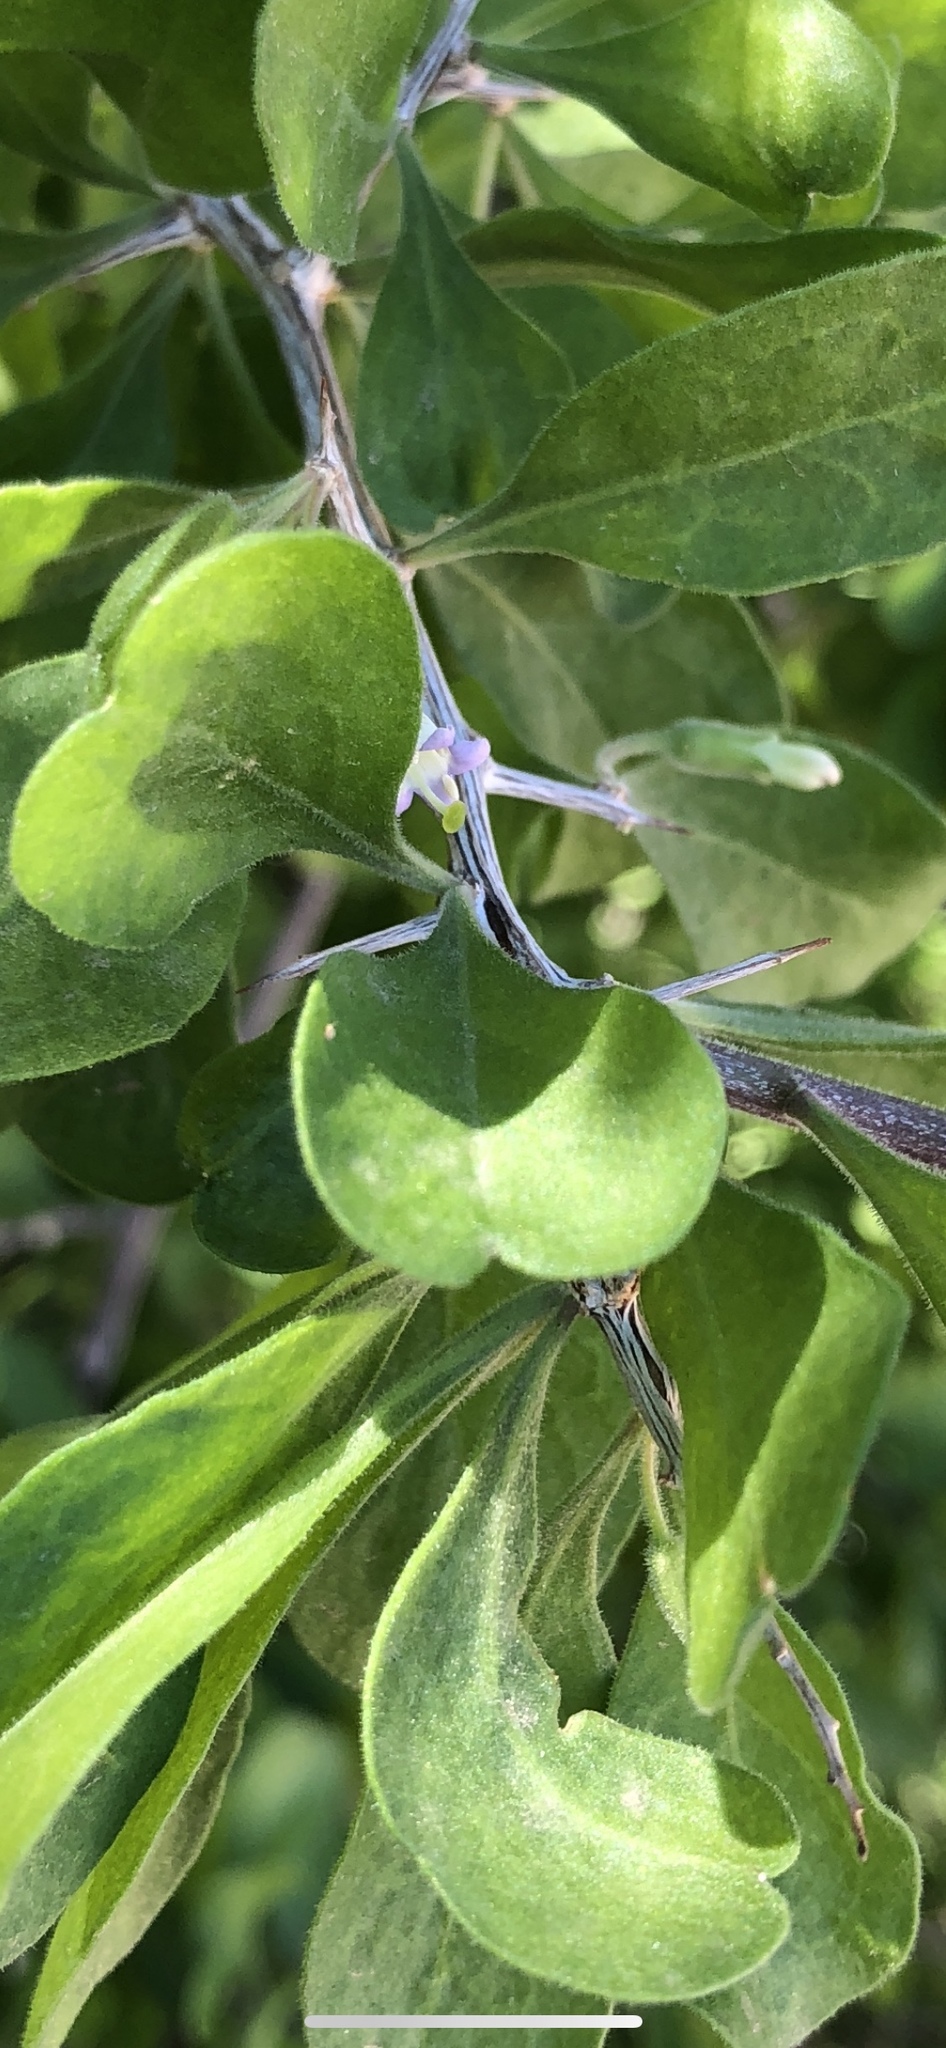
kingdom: Plantae
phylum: Tracheophyta
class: Magnoliopsida
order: Solanales
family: Solanaceae
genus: Lycium
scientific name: Lycium exsertum
